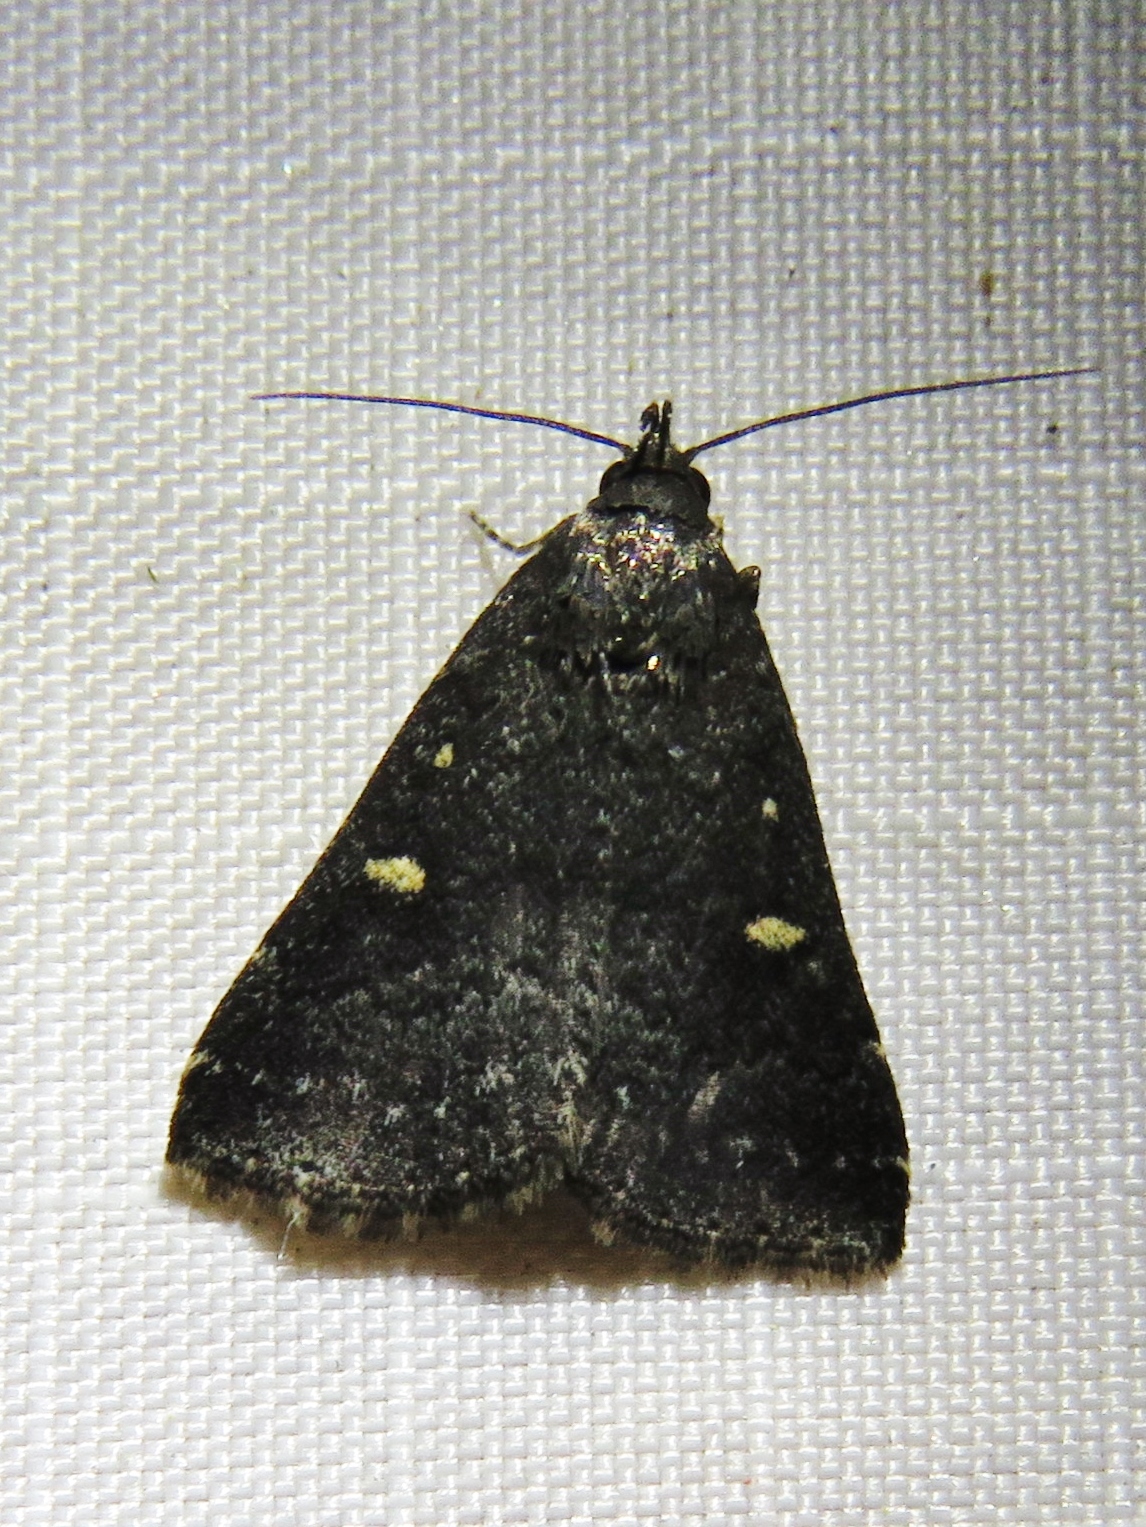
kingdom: Animalia
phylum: Arthropoda
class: Insecta
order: Lepidoptera
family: Erebidae
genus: Tetanolita
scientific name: Tetanolita mynesalis
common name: Smoky tetanolita moth
